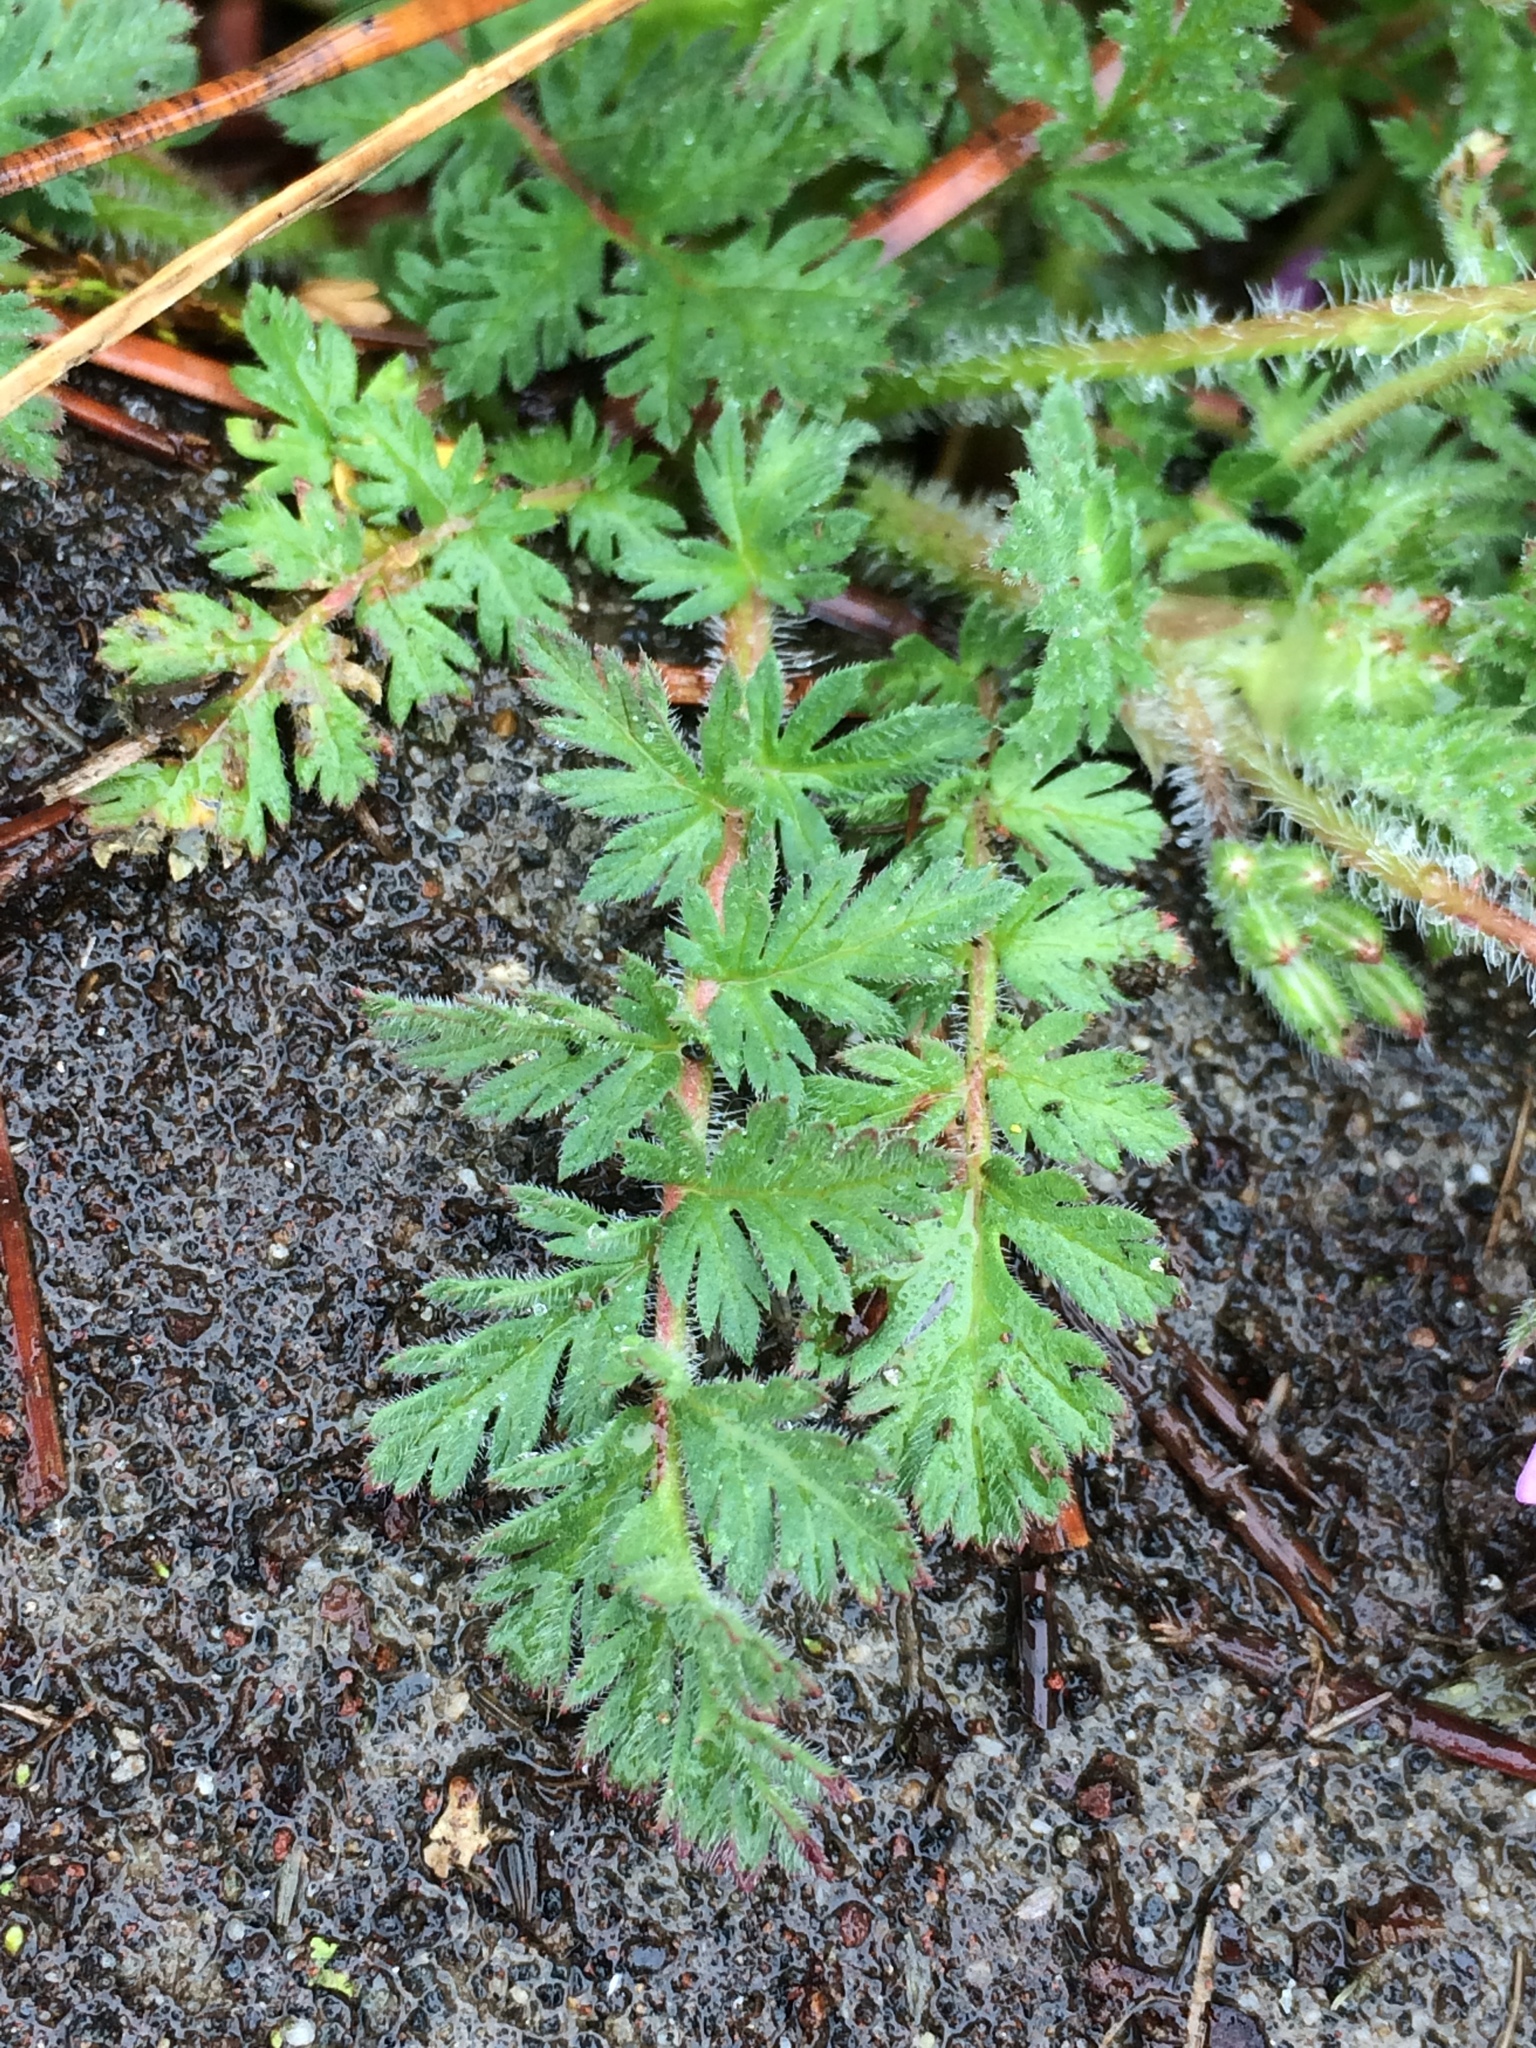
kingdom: Plantae
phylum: Tracheophyta
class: Magnoliopsida
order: Geraniales
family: Geraniaceae
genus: Erodium
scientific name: Erodium cicutarium
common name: Common stork's-bill
